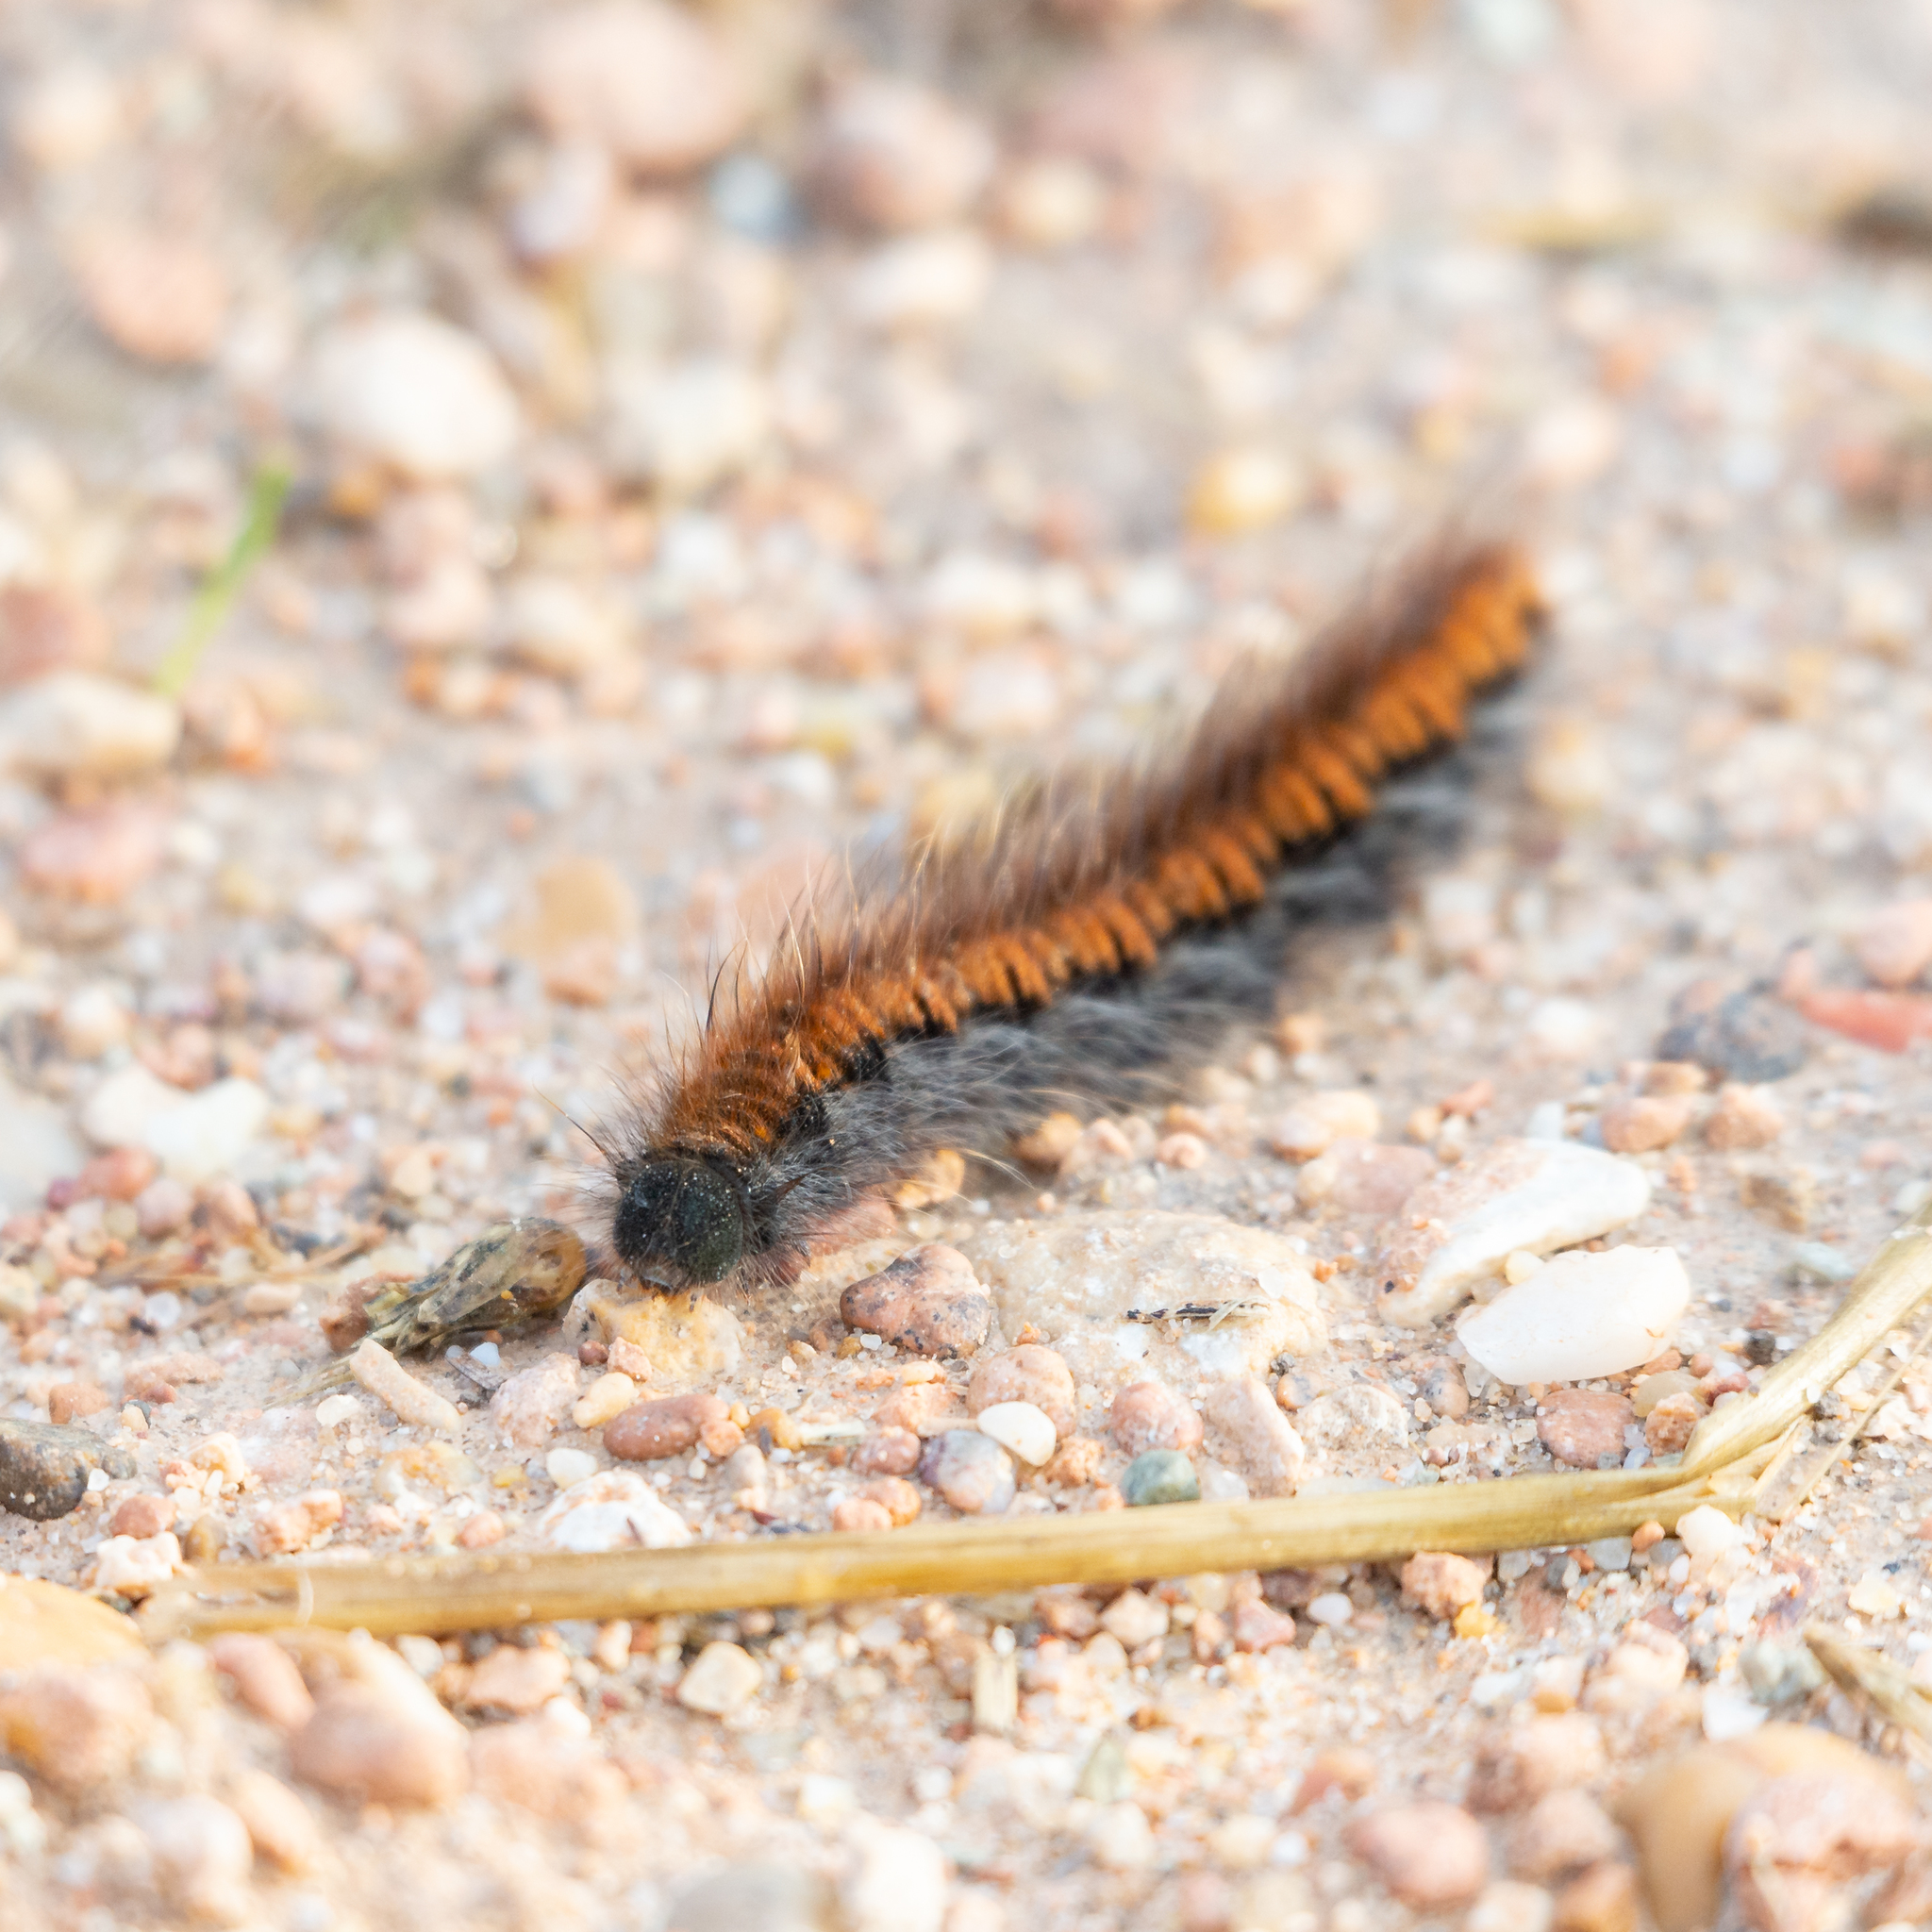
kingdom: Animalia
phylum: Arthropoda
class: Insecta
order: Lepidoptera
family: Lasiocampidae
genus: Macrothylacia
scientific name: Macrothylacia rubi
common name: Fox moth
